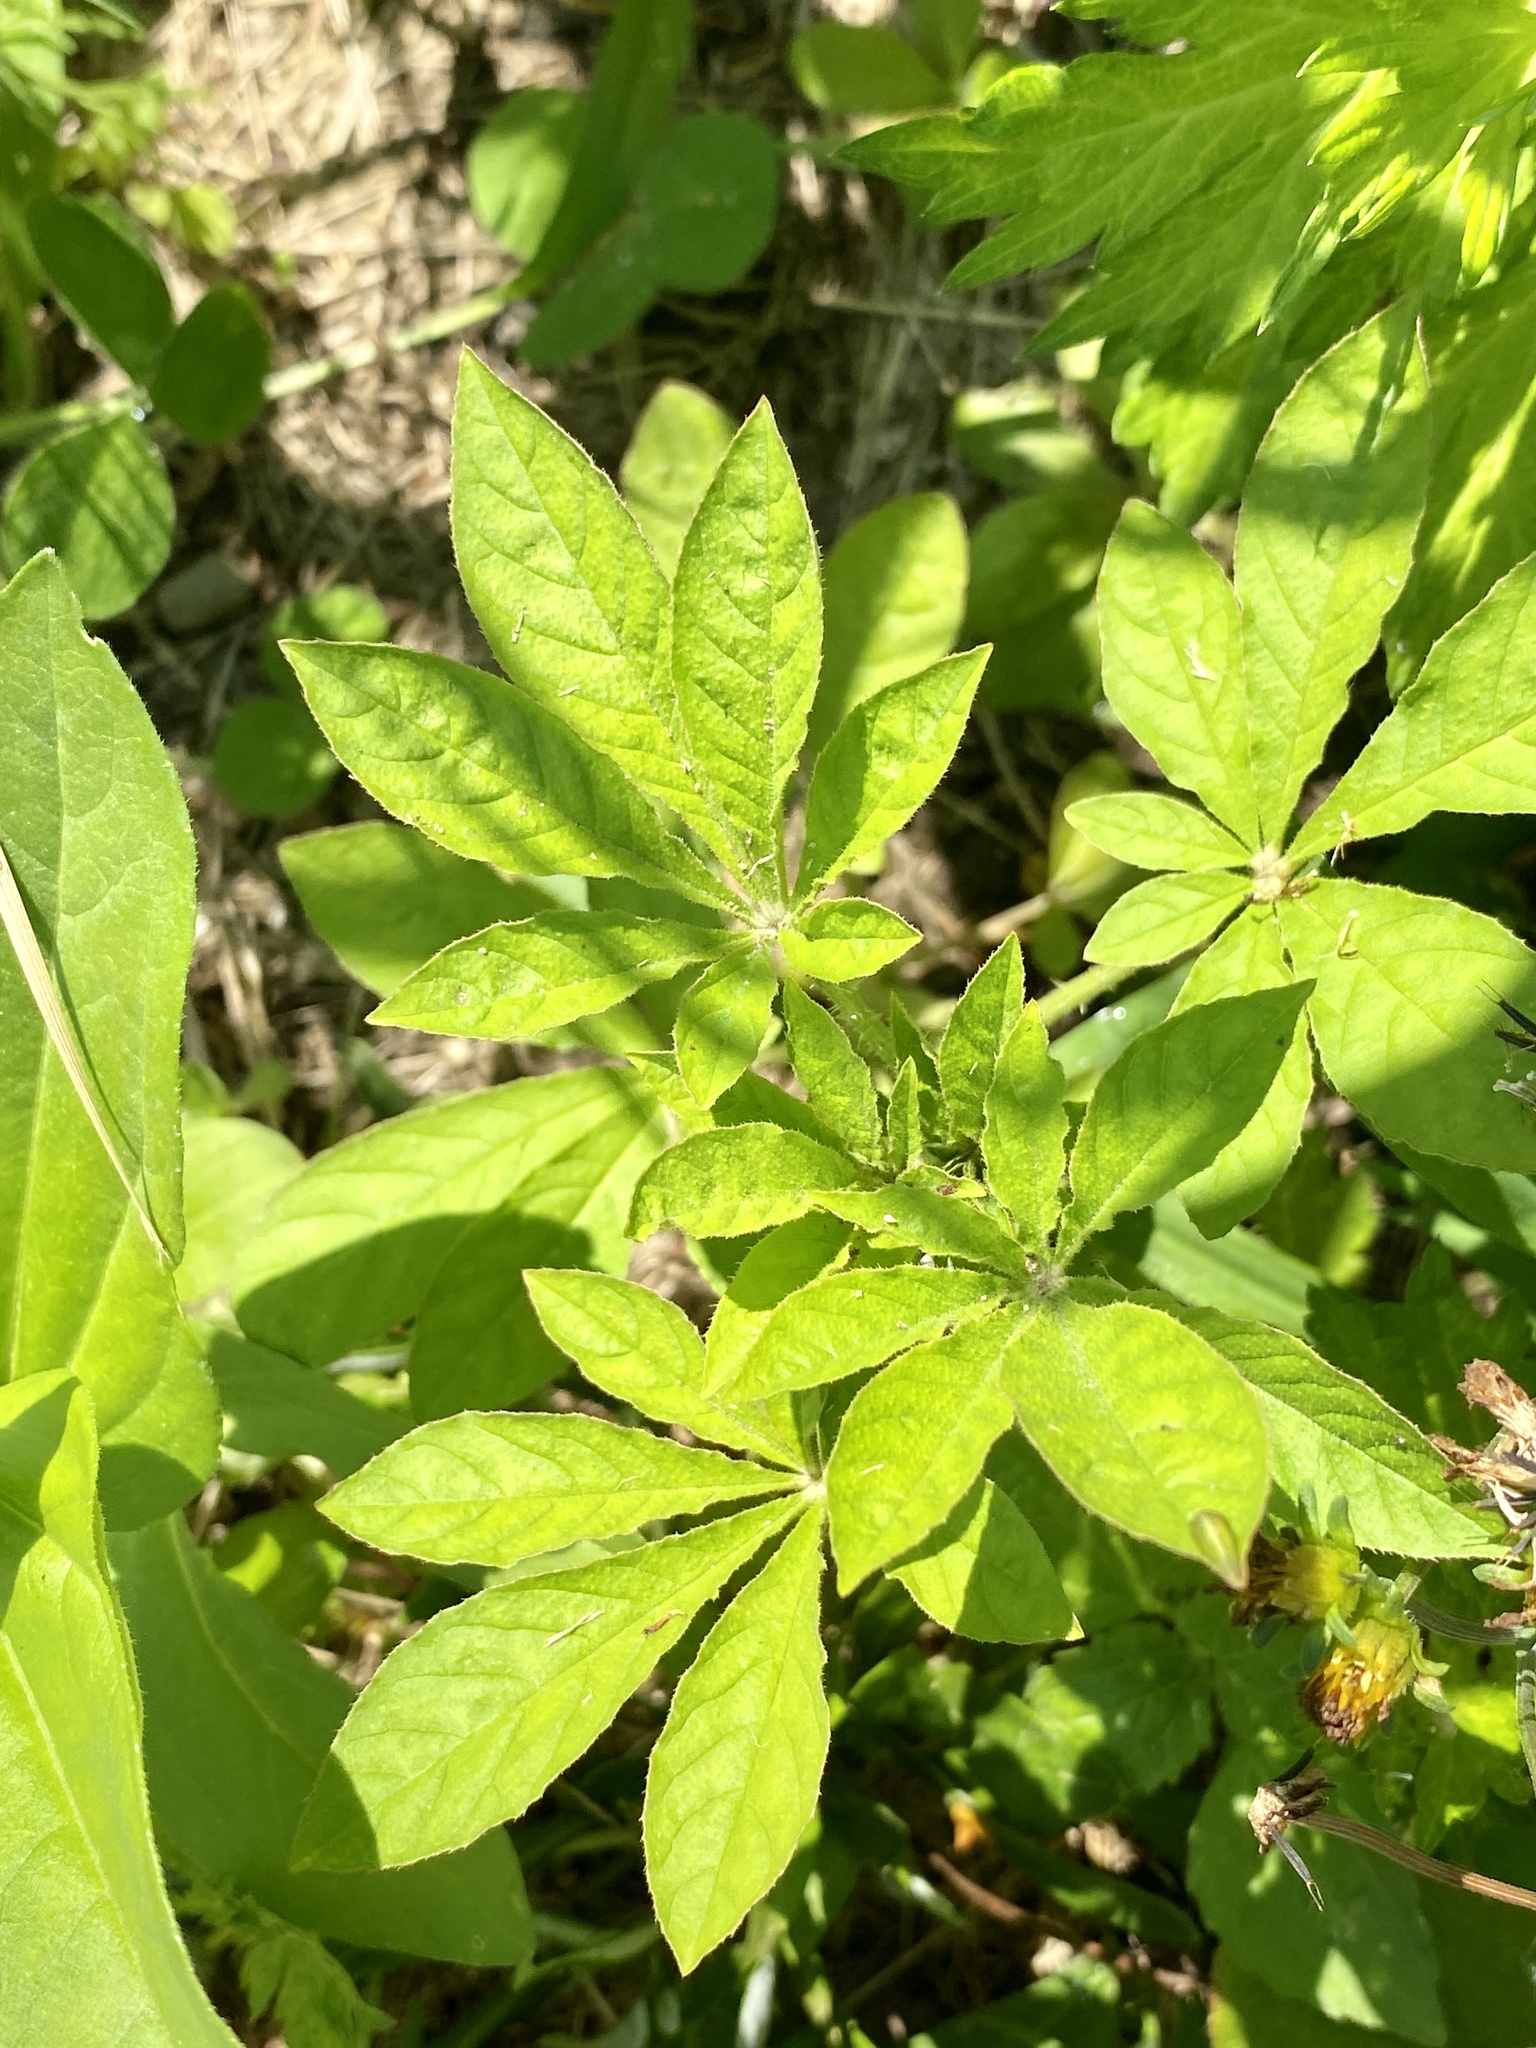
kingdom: Plantae
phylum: Tracheophyta
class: Magnoliopsida
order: Brassicales
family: Cleomaceae
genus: Tarenaya
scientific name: Tarenaya houtteana
